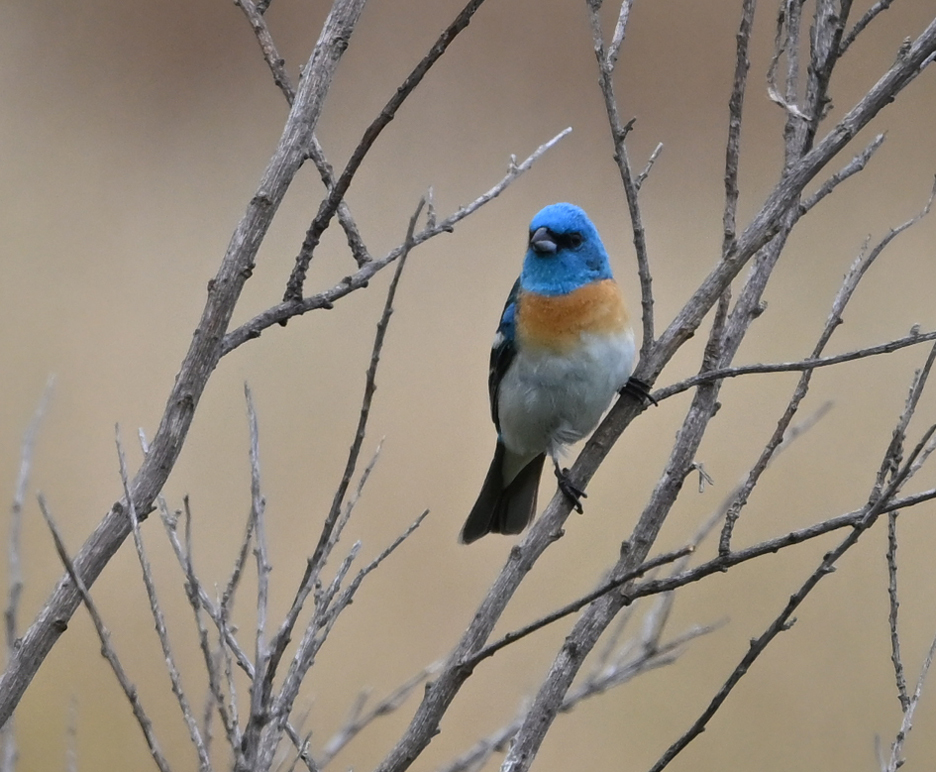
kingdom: Animalia
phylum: Chordata
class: Aves
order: Passeriformes
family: Cardinalidae
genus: Passerina
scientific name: Passerina amoena
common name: Lazuli bunting
